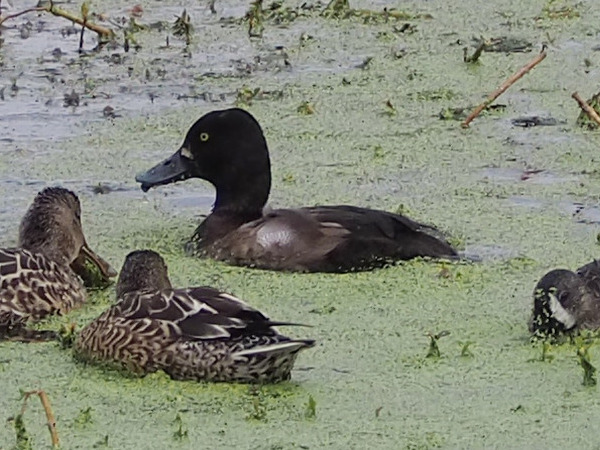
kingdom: Animalia
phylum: Chordata
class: Aves
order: Anseriformes
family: Anatidae
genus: Aythya
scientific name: Aythya affinis
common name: Lesser scaup
